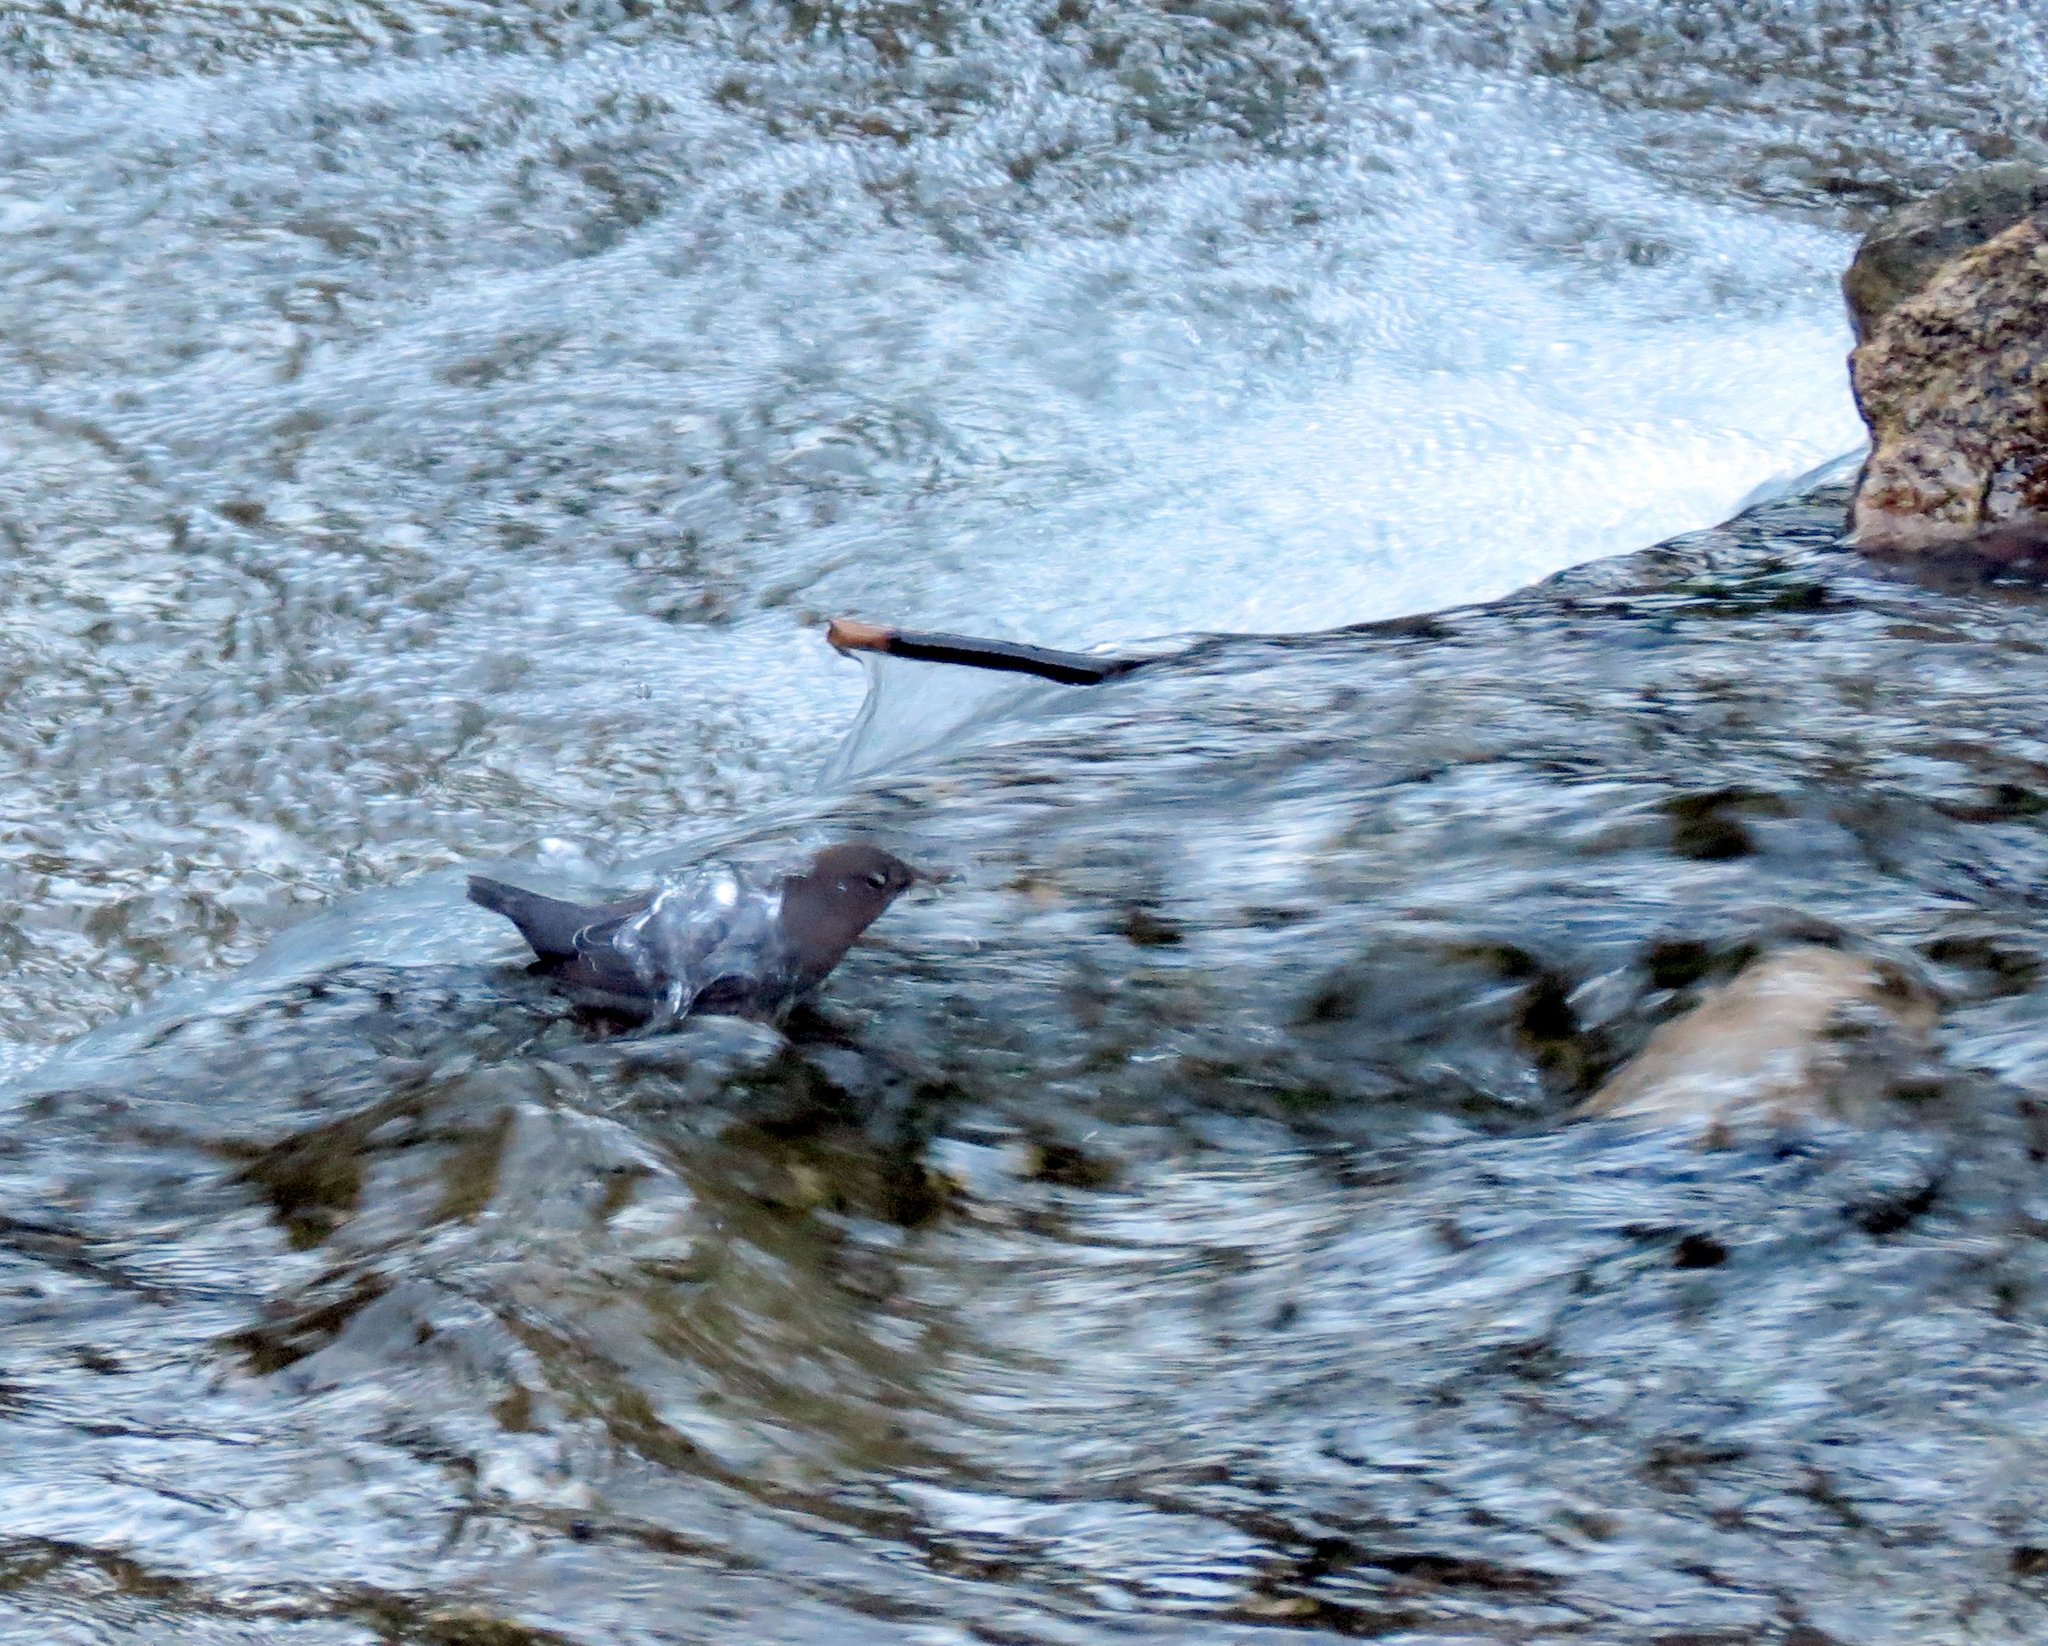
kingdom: Animalia
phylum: Chordata
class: Aves
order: Passeriformes
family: Cinclidae
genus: Cinclus
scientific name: Cinclus mexicanus
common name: American dipper
